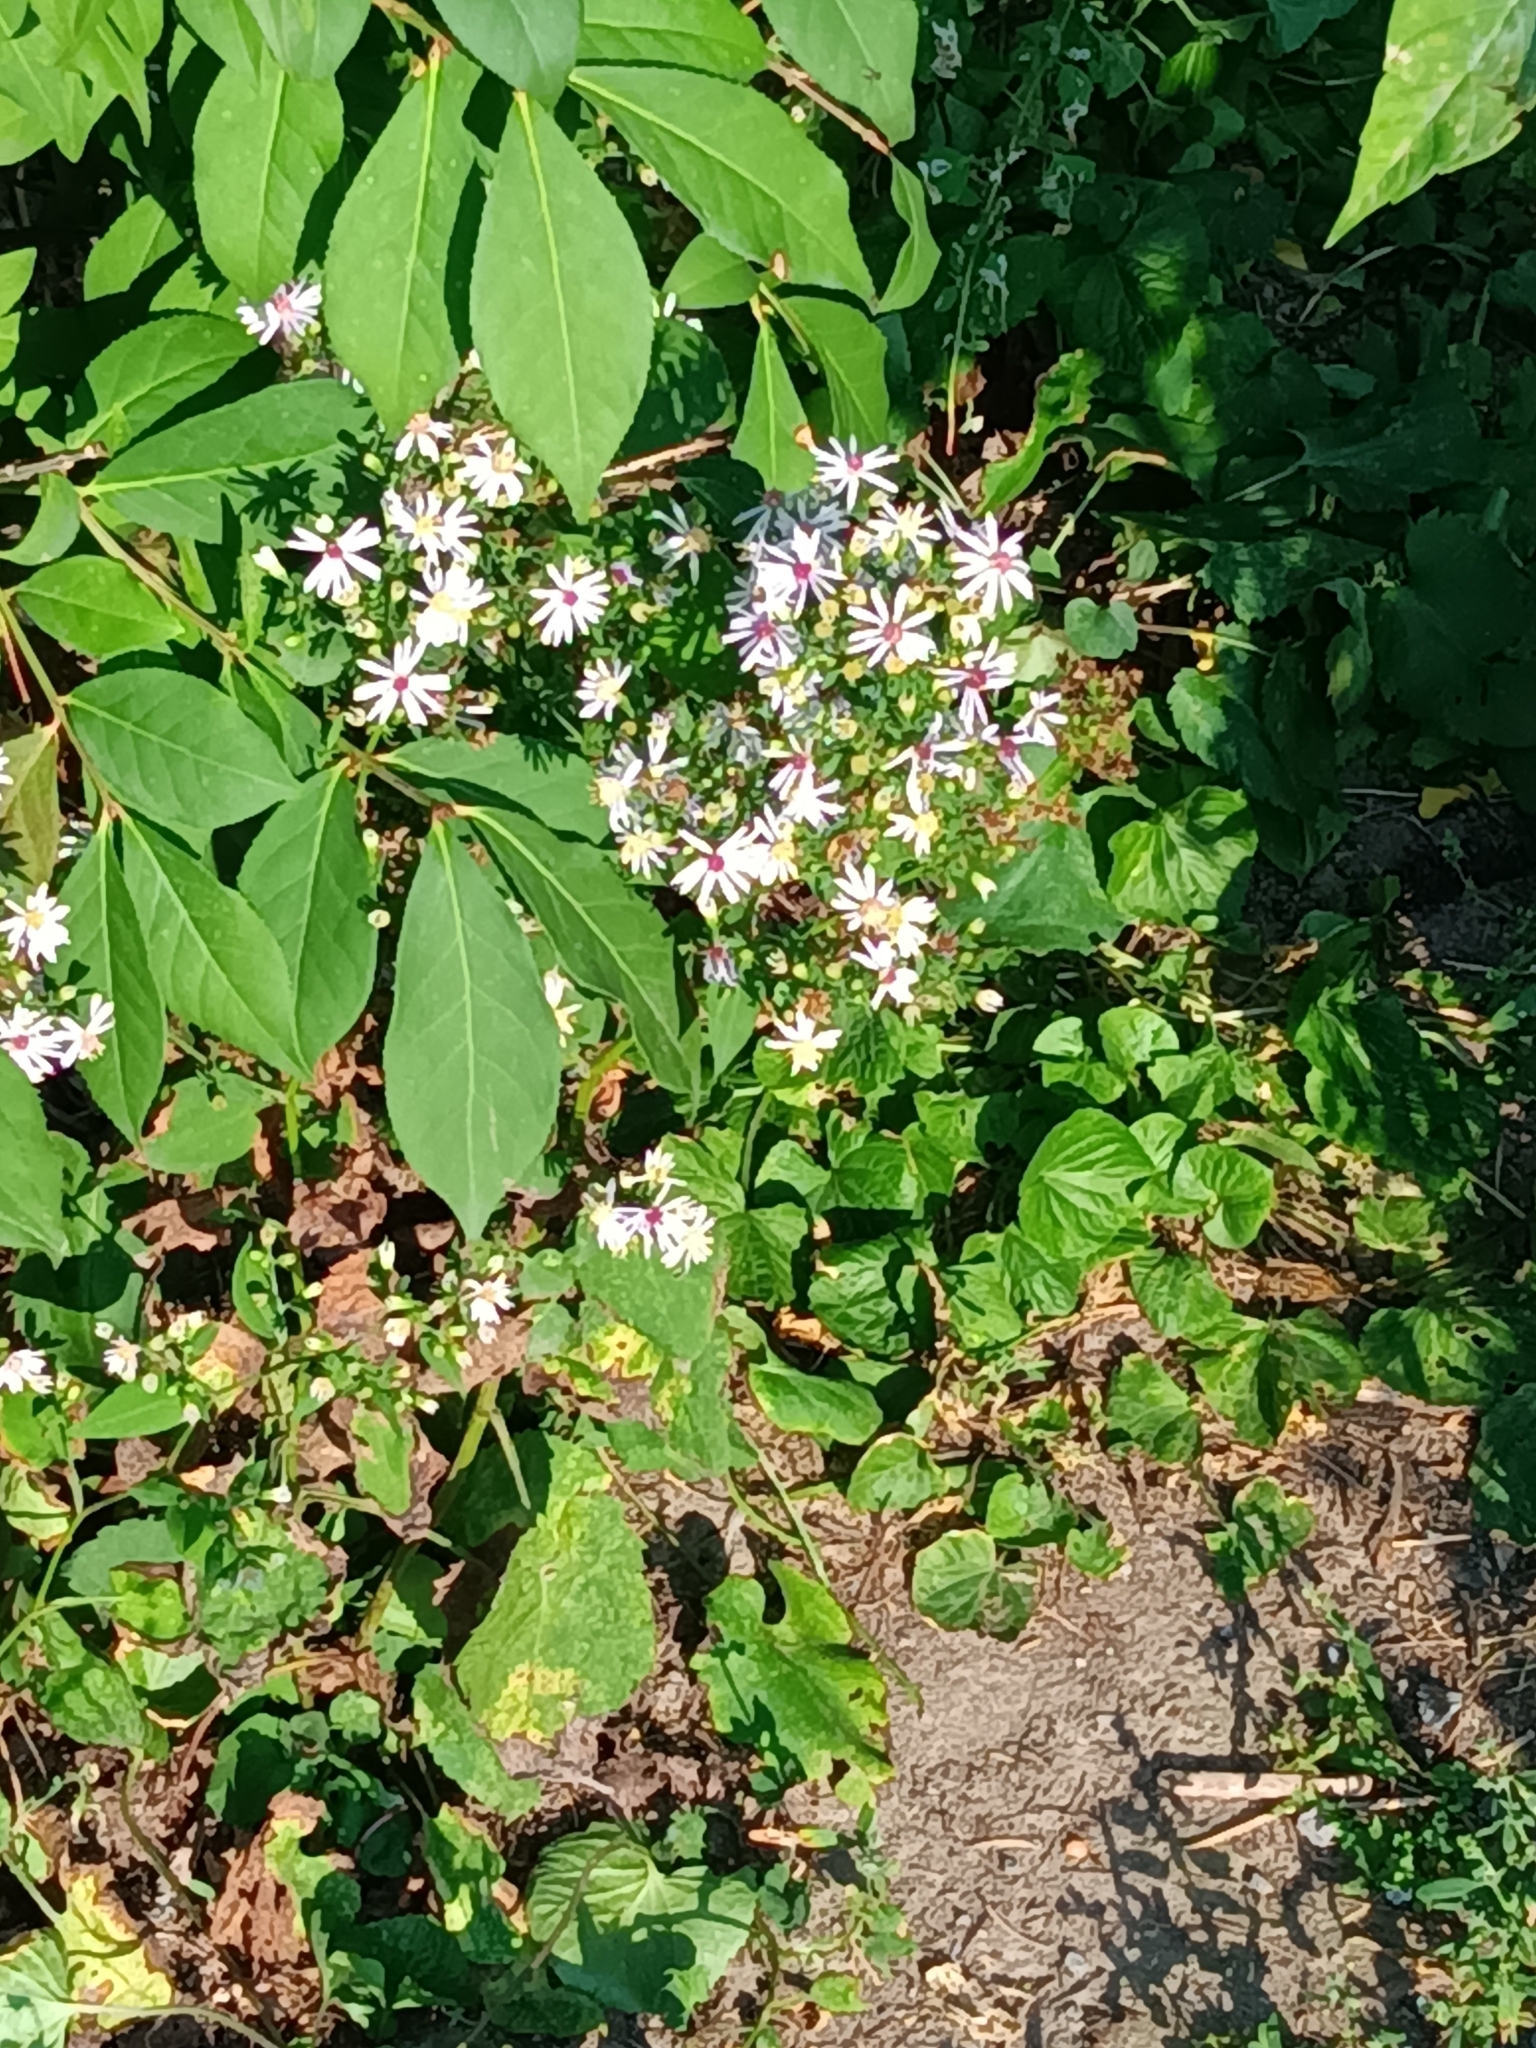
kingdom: Plantae
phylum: Tracheophyta
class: Magnoliopsida
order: Asterales
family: Asteraceae
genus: Symphyotrichum
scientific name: Symphyotrichum cordifolium
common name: Beeweed
